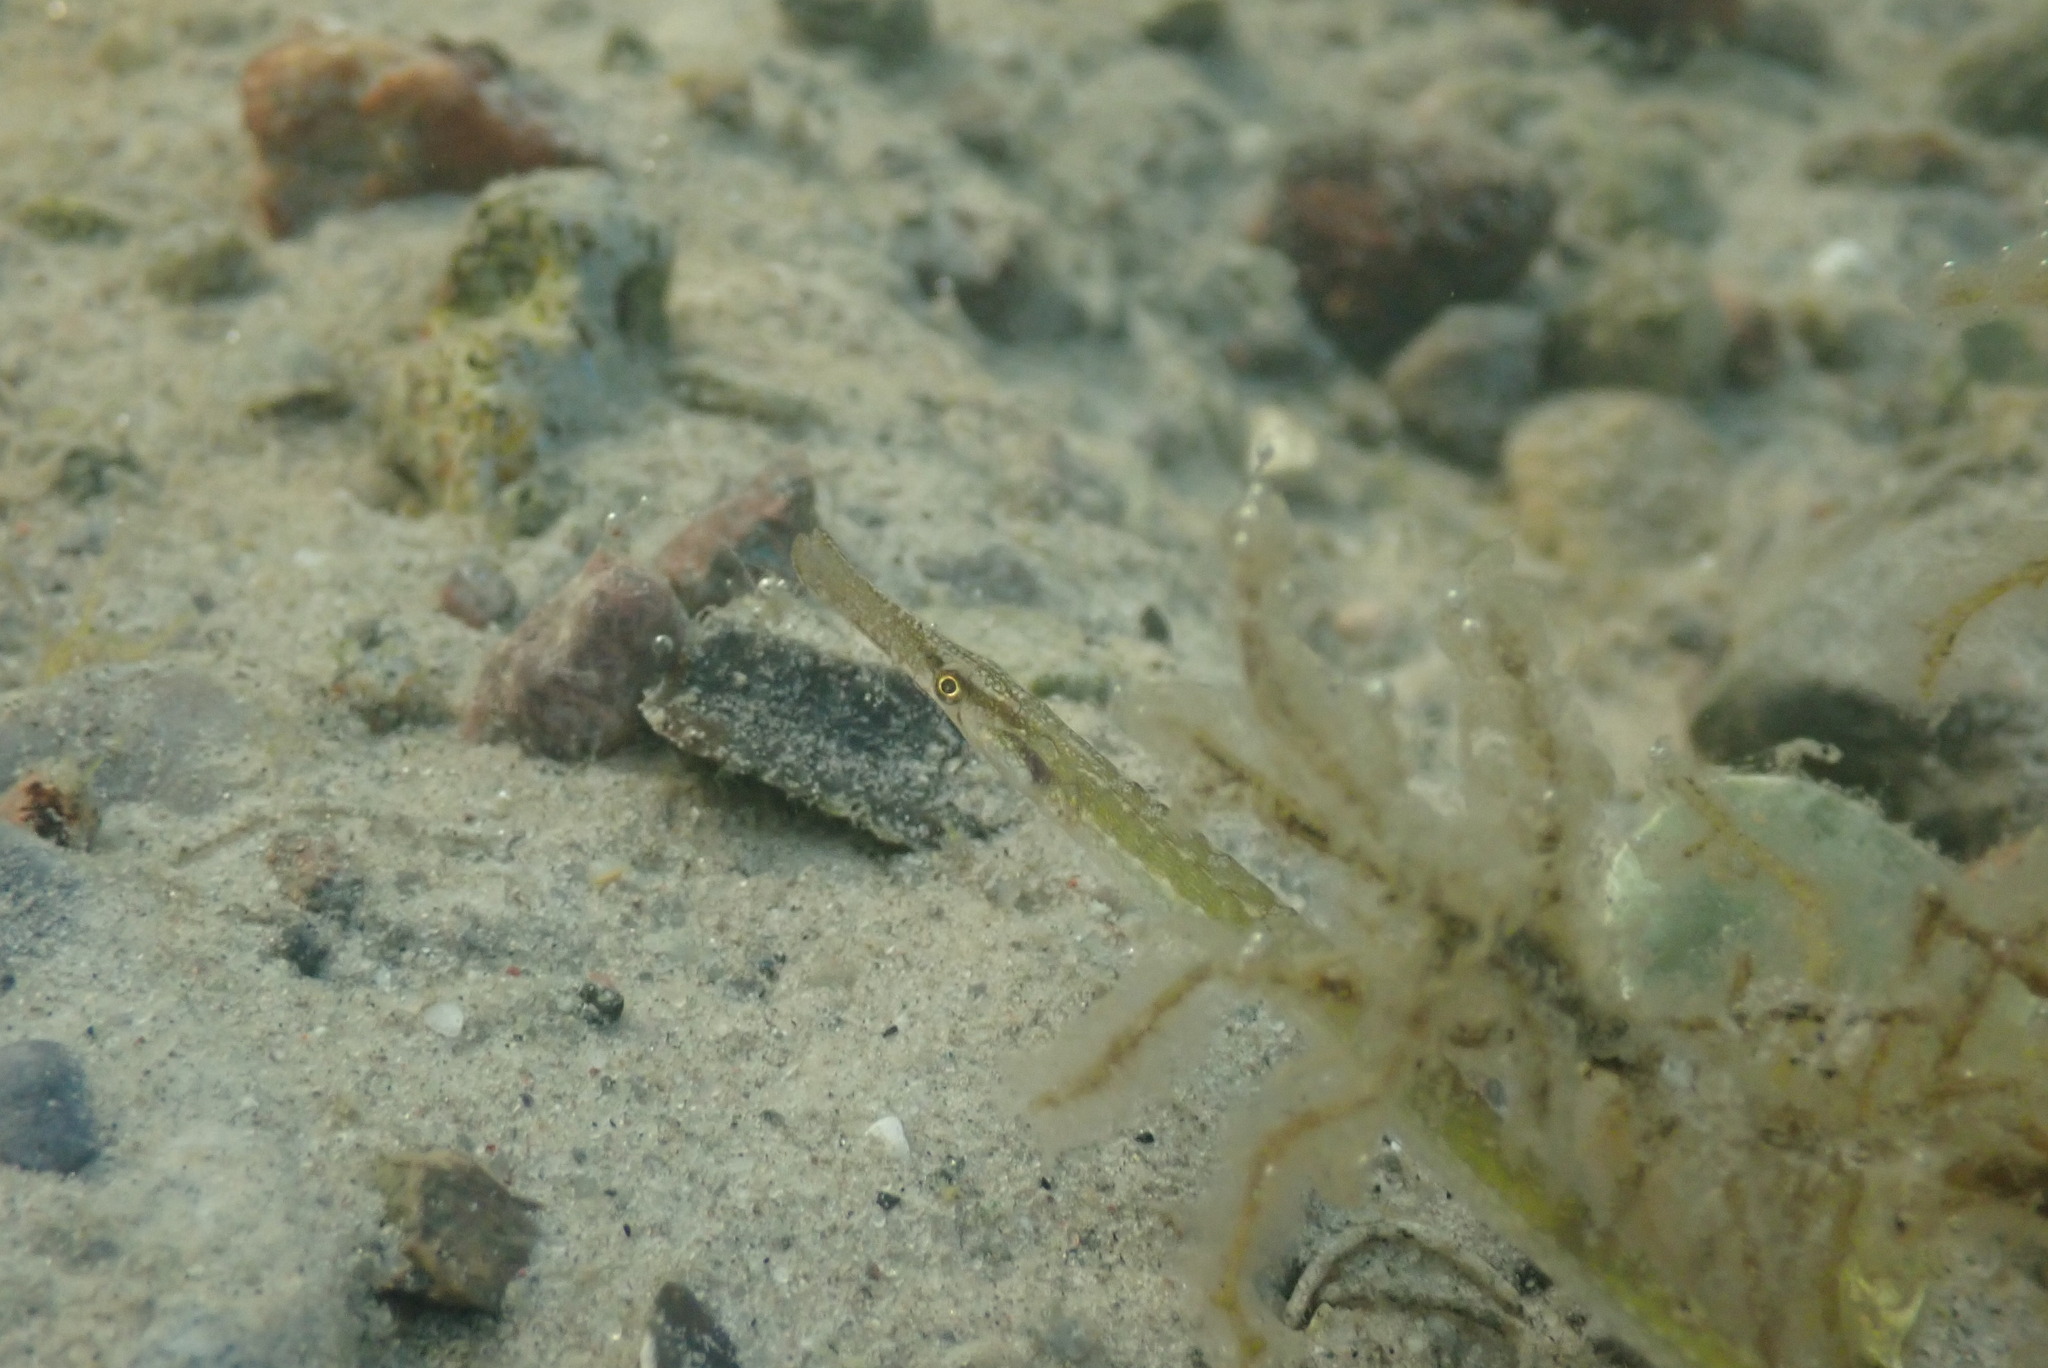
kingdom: Animalia
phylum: Chordata
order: Syngnathiformes
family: Syngnathidae
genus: Syngnathus
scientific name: Syngnathus typhle
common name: Deep-snouted pipefish
